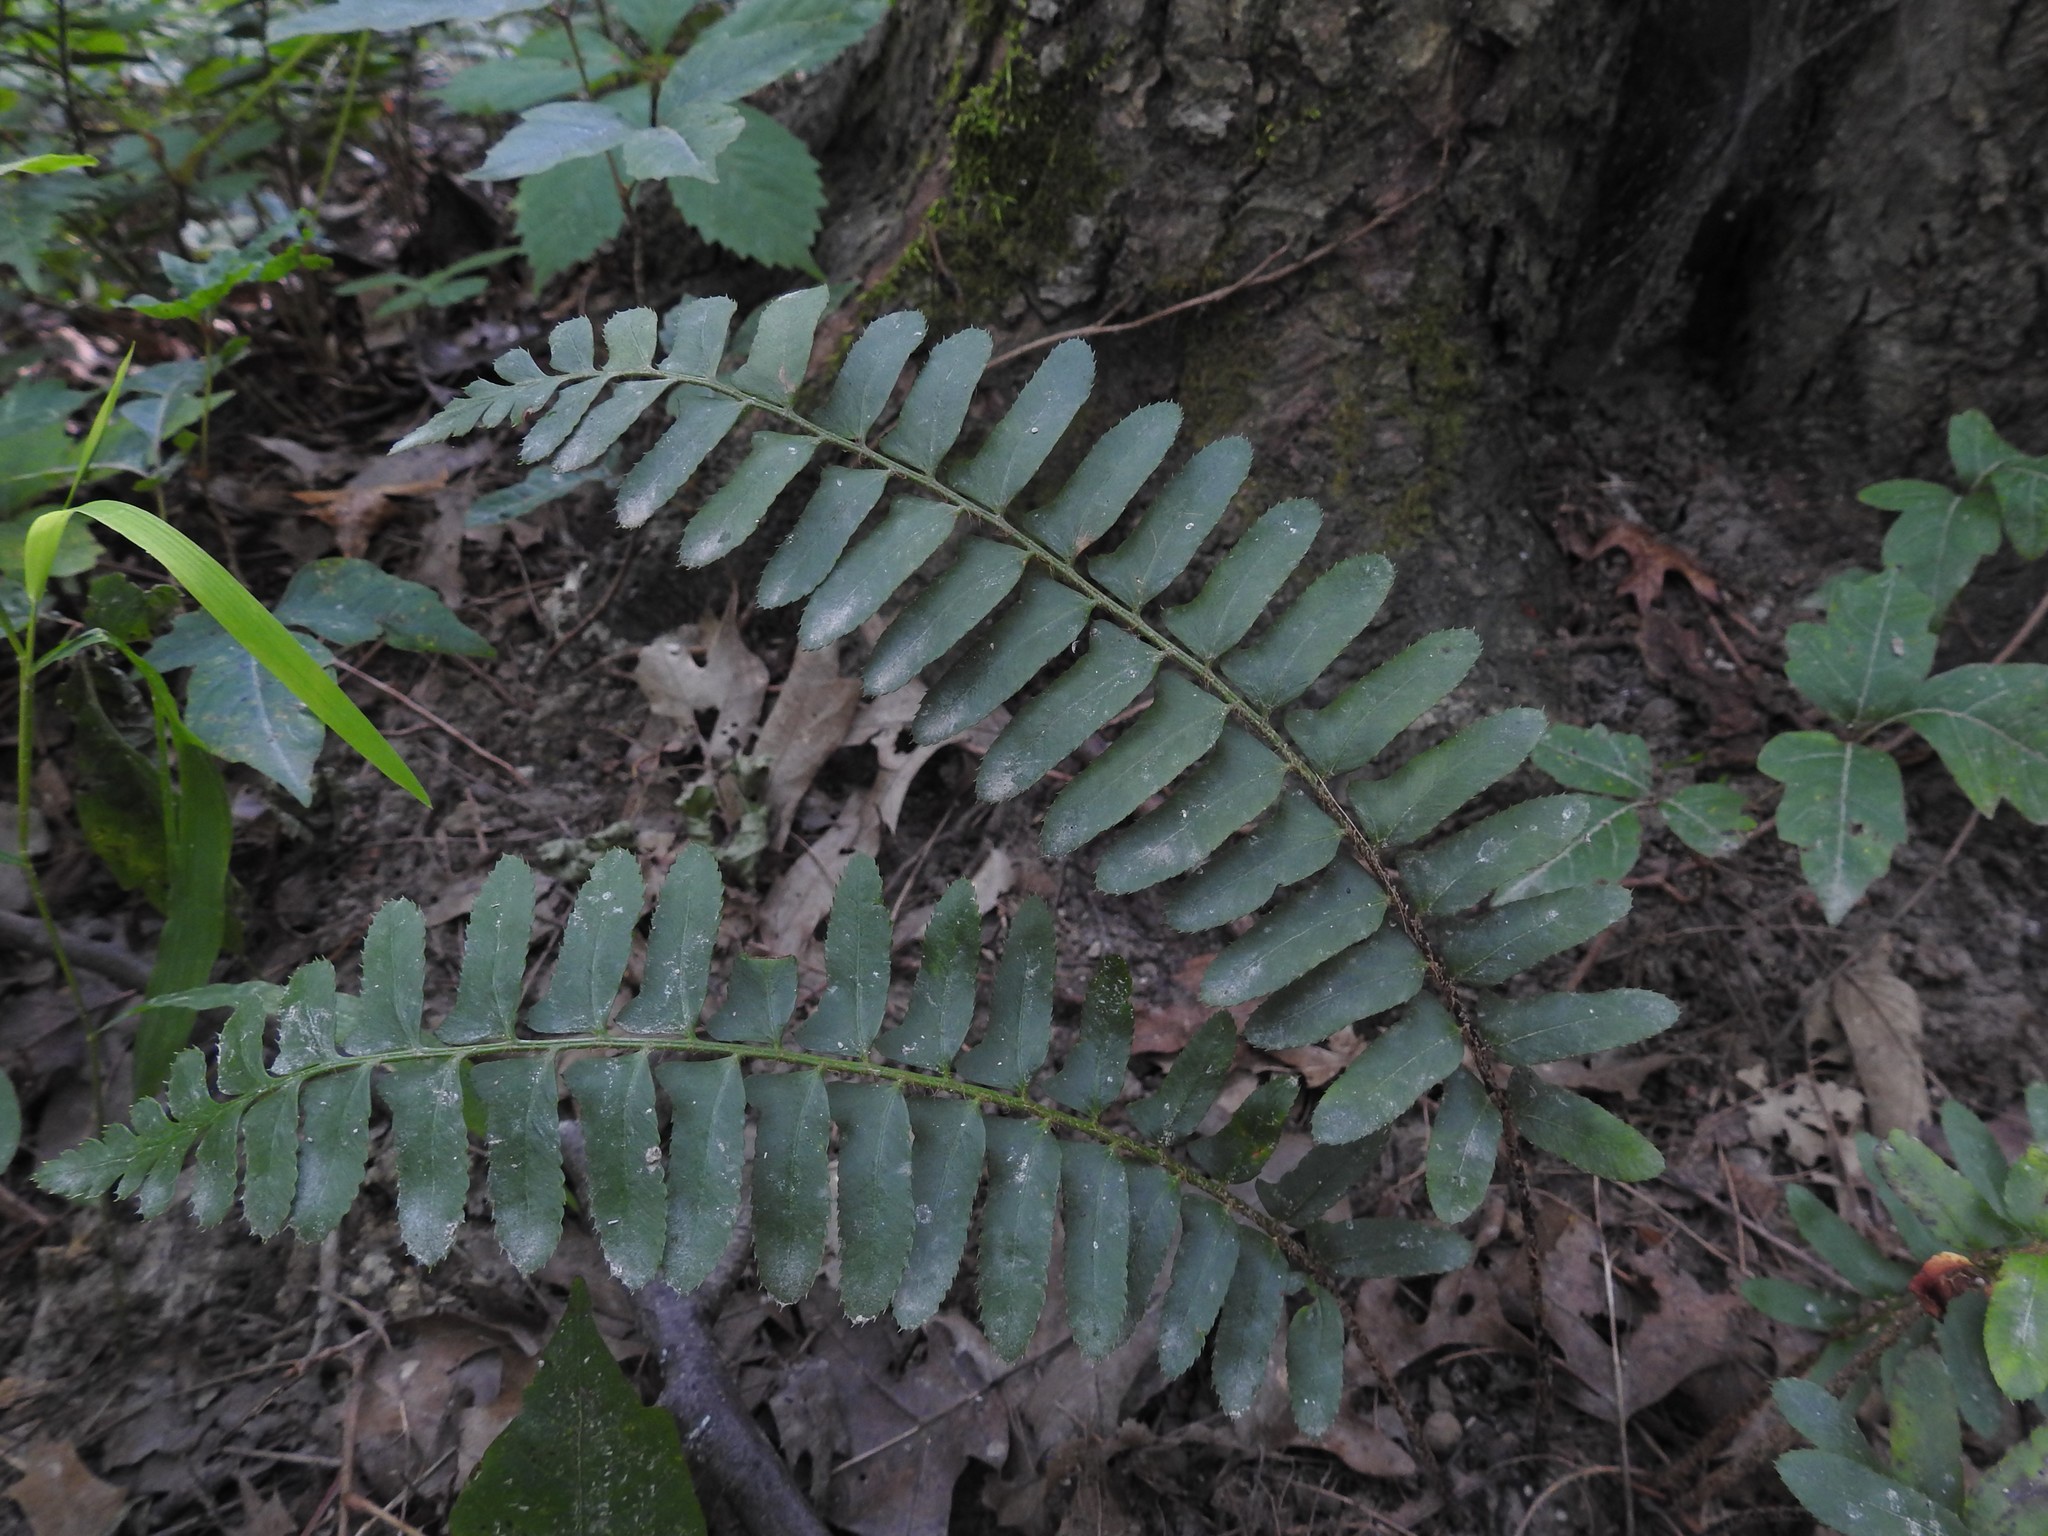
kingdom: Plantae
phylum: Tracheophyta
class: Polypodiopsida
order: Polypodiales
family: Dryopteridaceae
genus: Polystichum
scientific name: Polystichum acrostichoides
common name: Christmas fern
